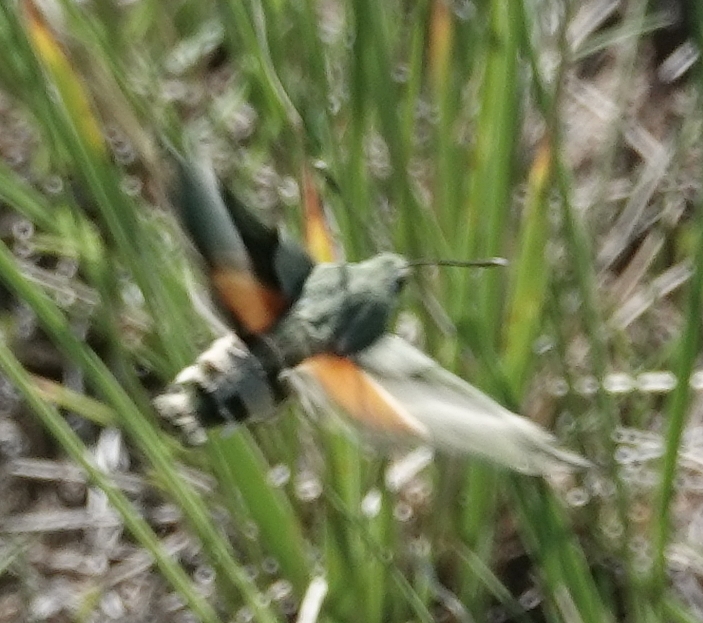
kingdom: Animalia
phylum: Arthropoda
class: Insecta
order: Lepidoptera
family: Sphingidae
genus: Proserpinus
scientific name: Proserpinus juanita
